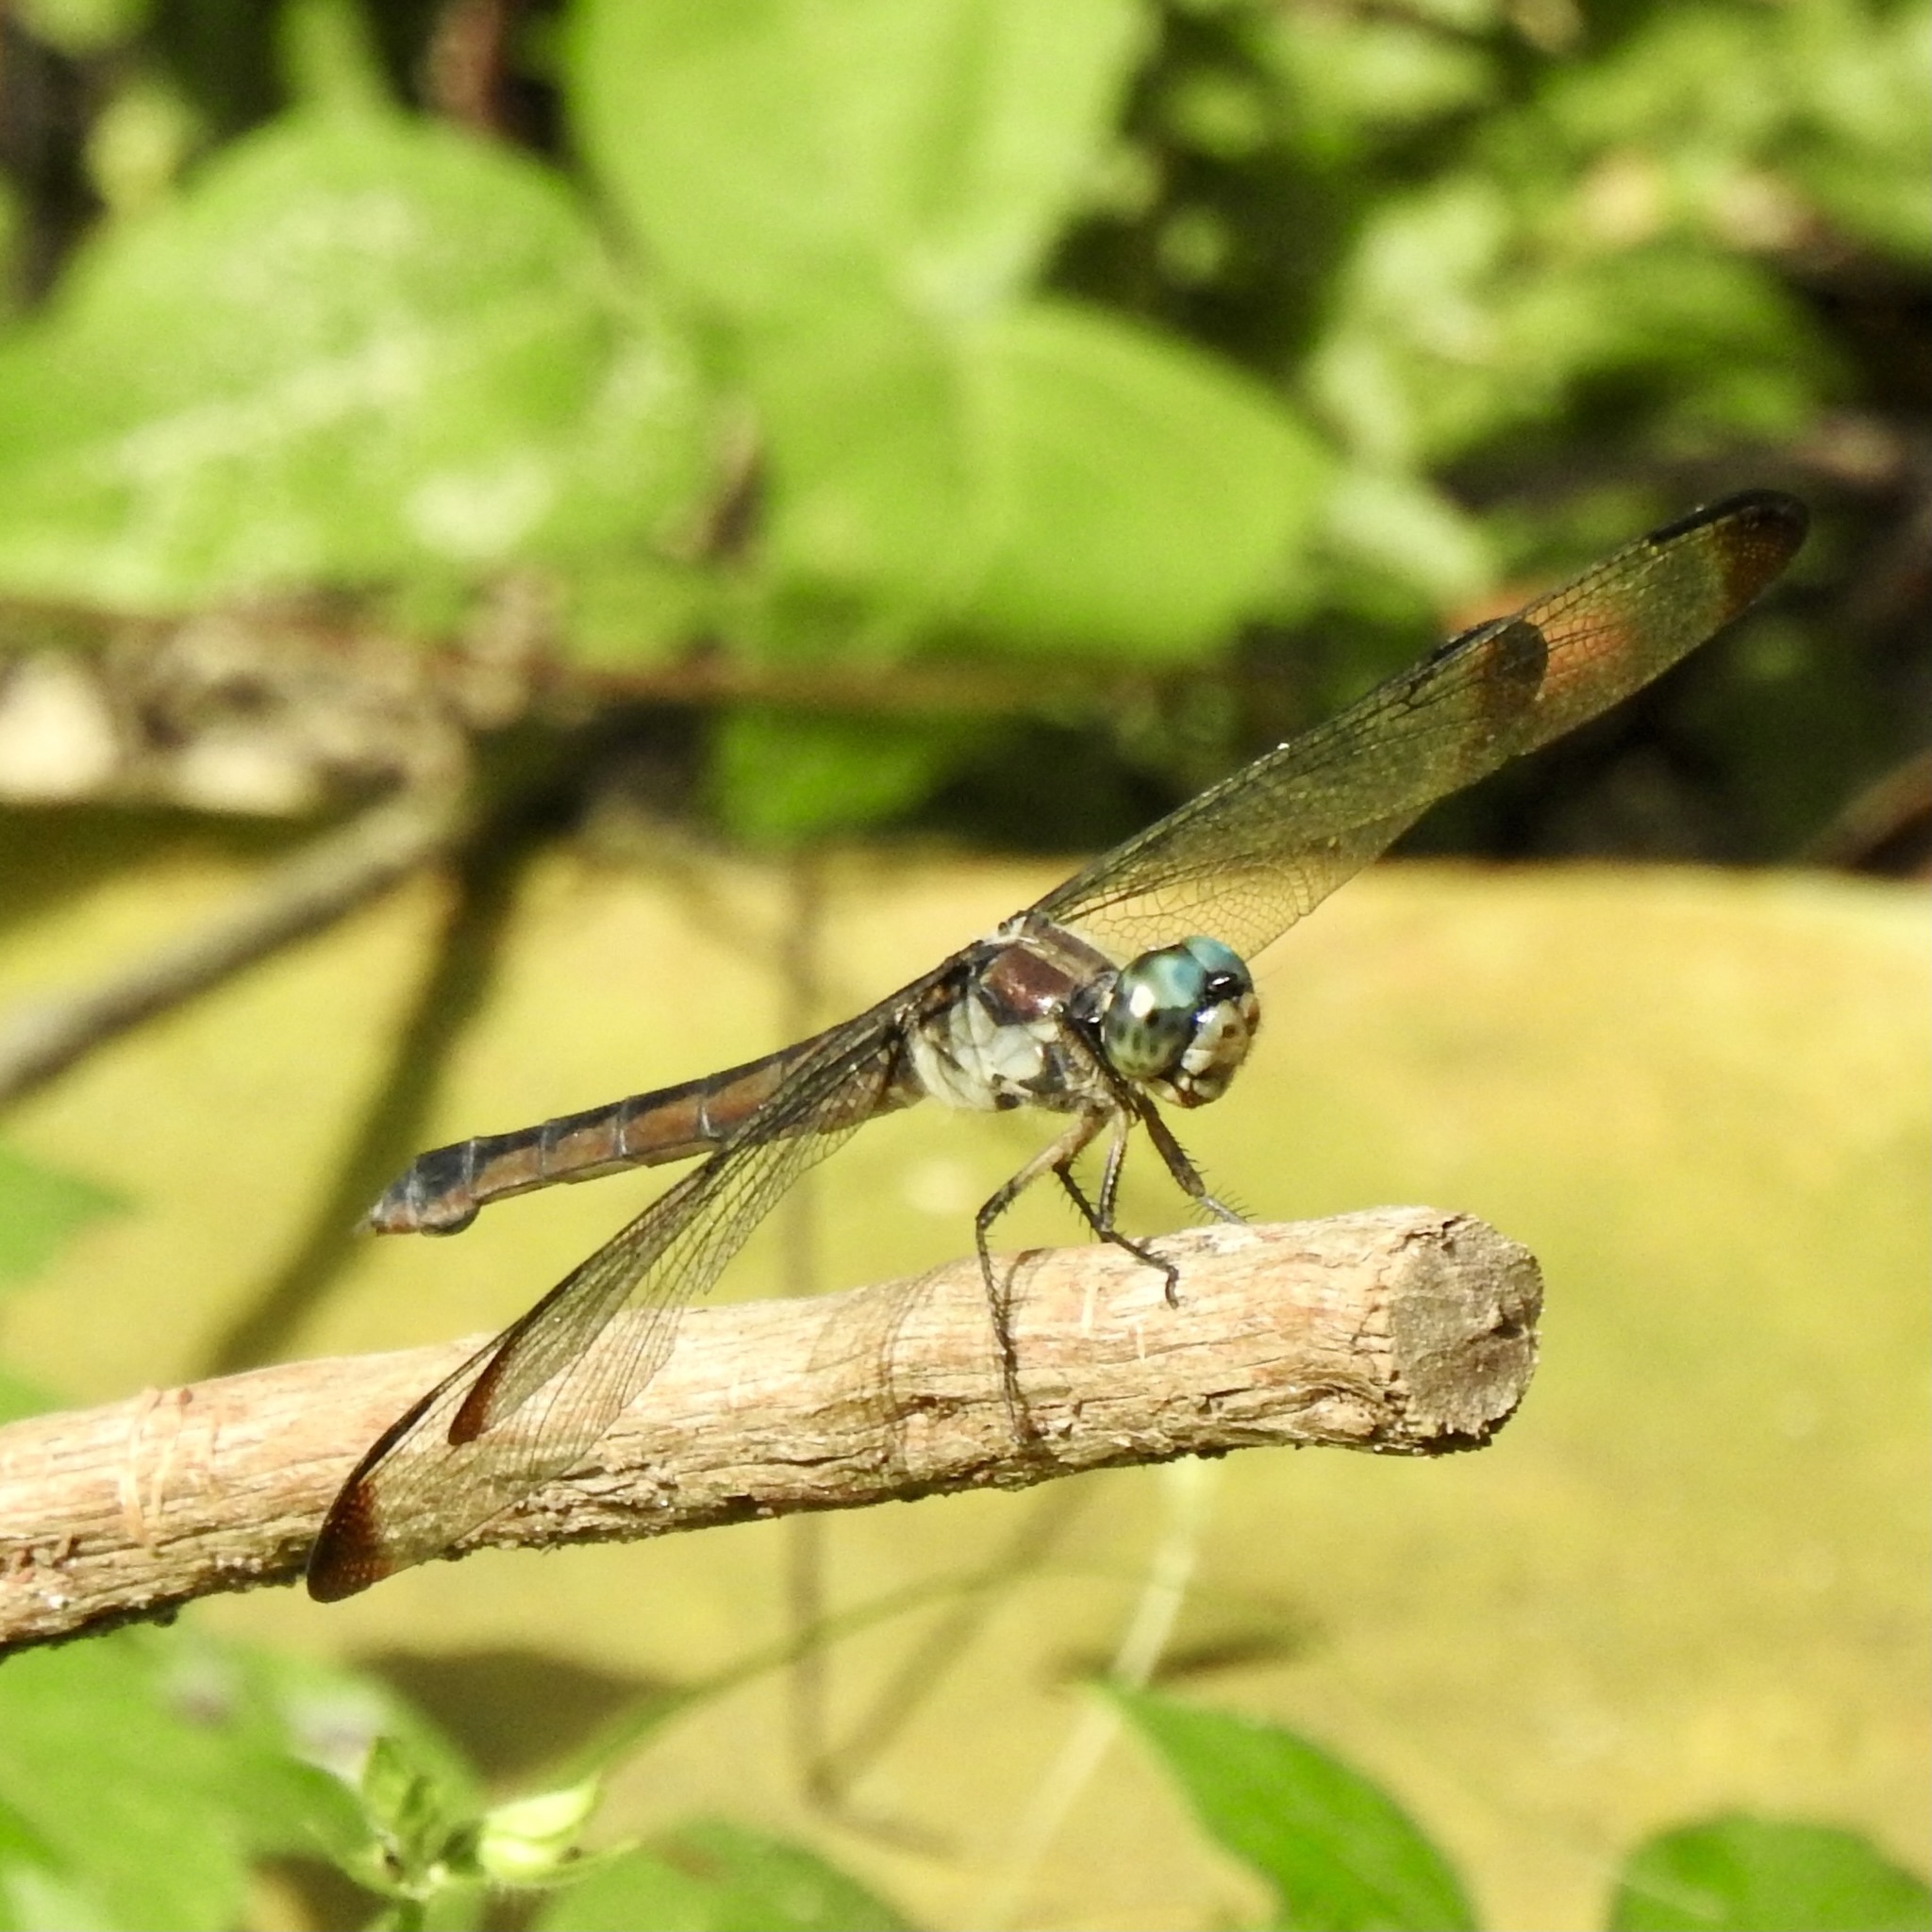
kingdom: Animalia
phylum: Arthropoda
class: Insecta
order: Odonata
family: Libellulidae
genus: Libellula
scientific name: Libellula vibrans
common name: Great blue skimmer
